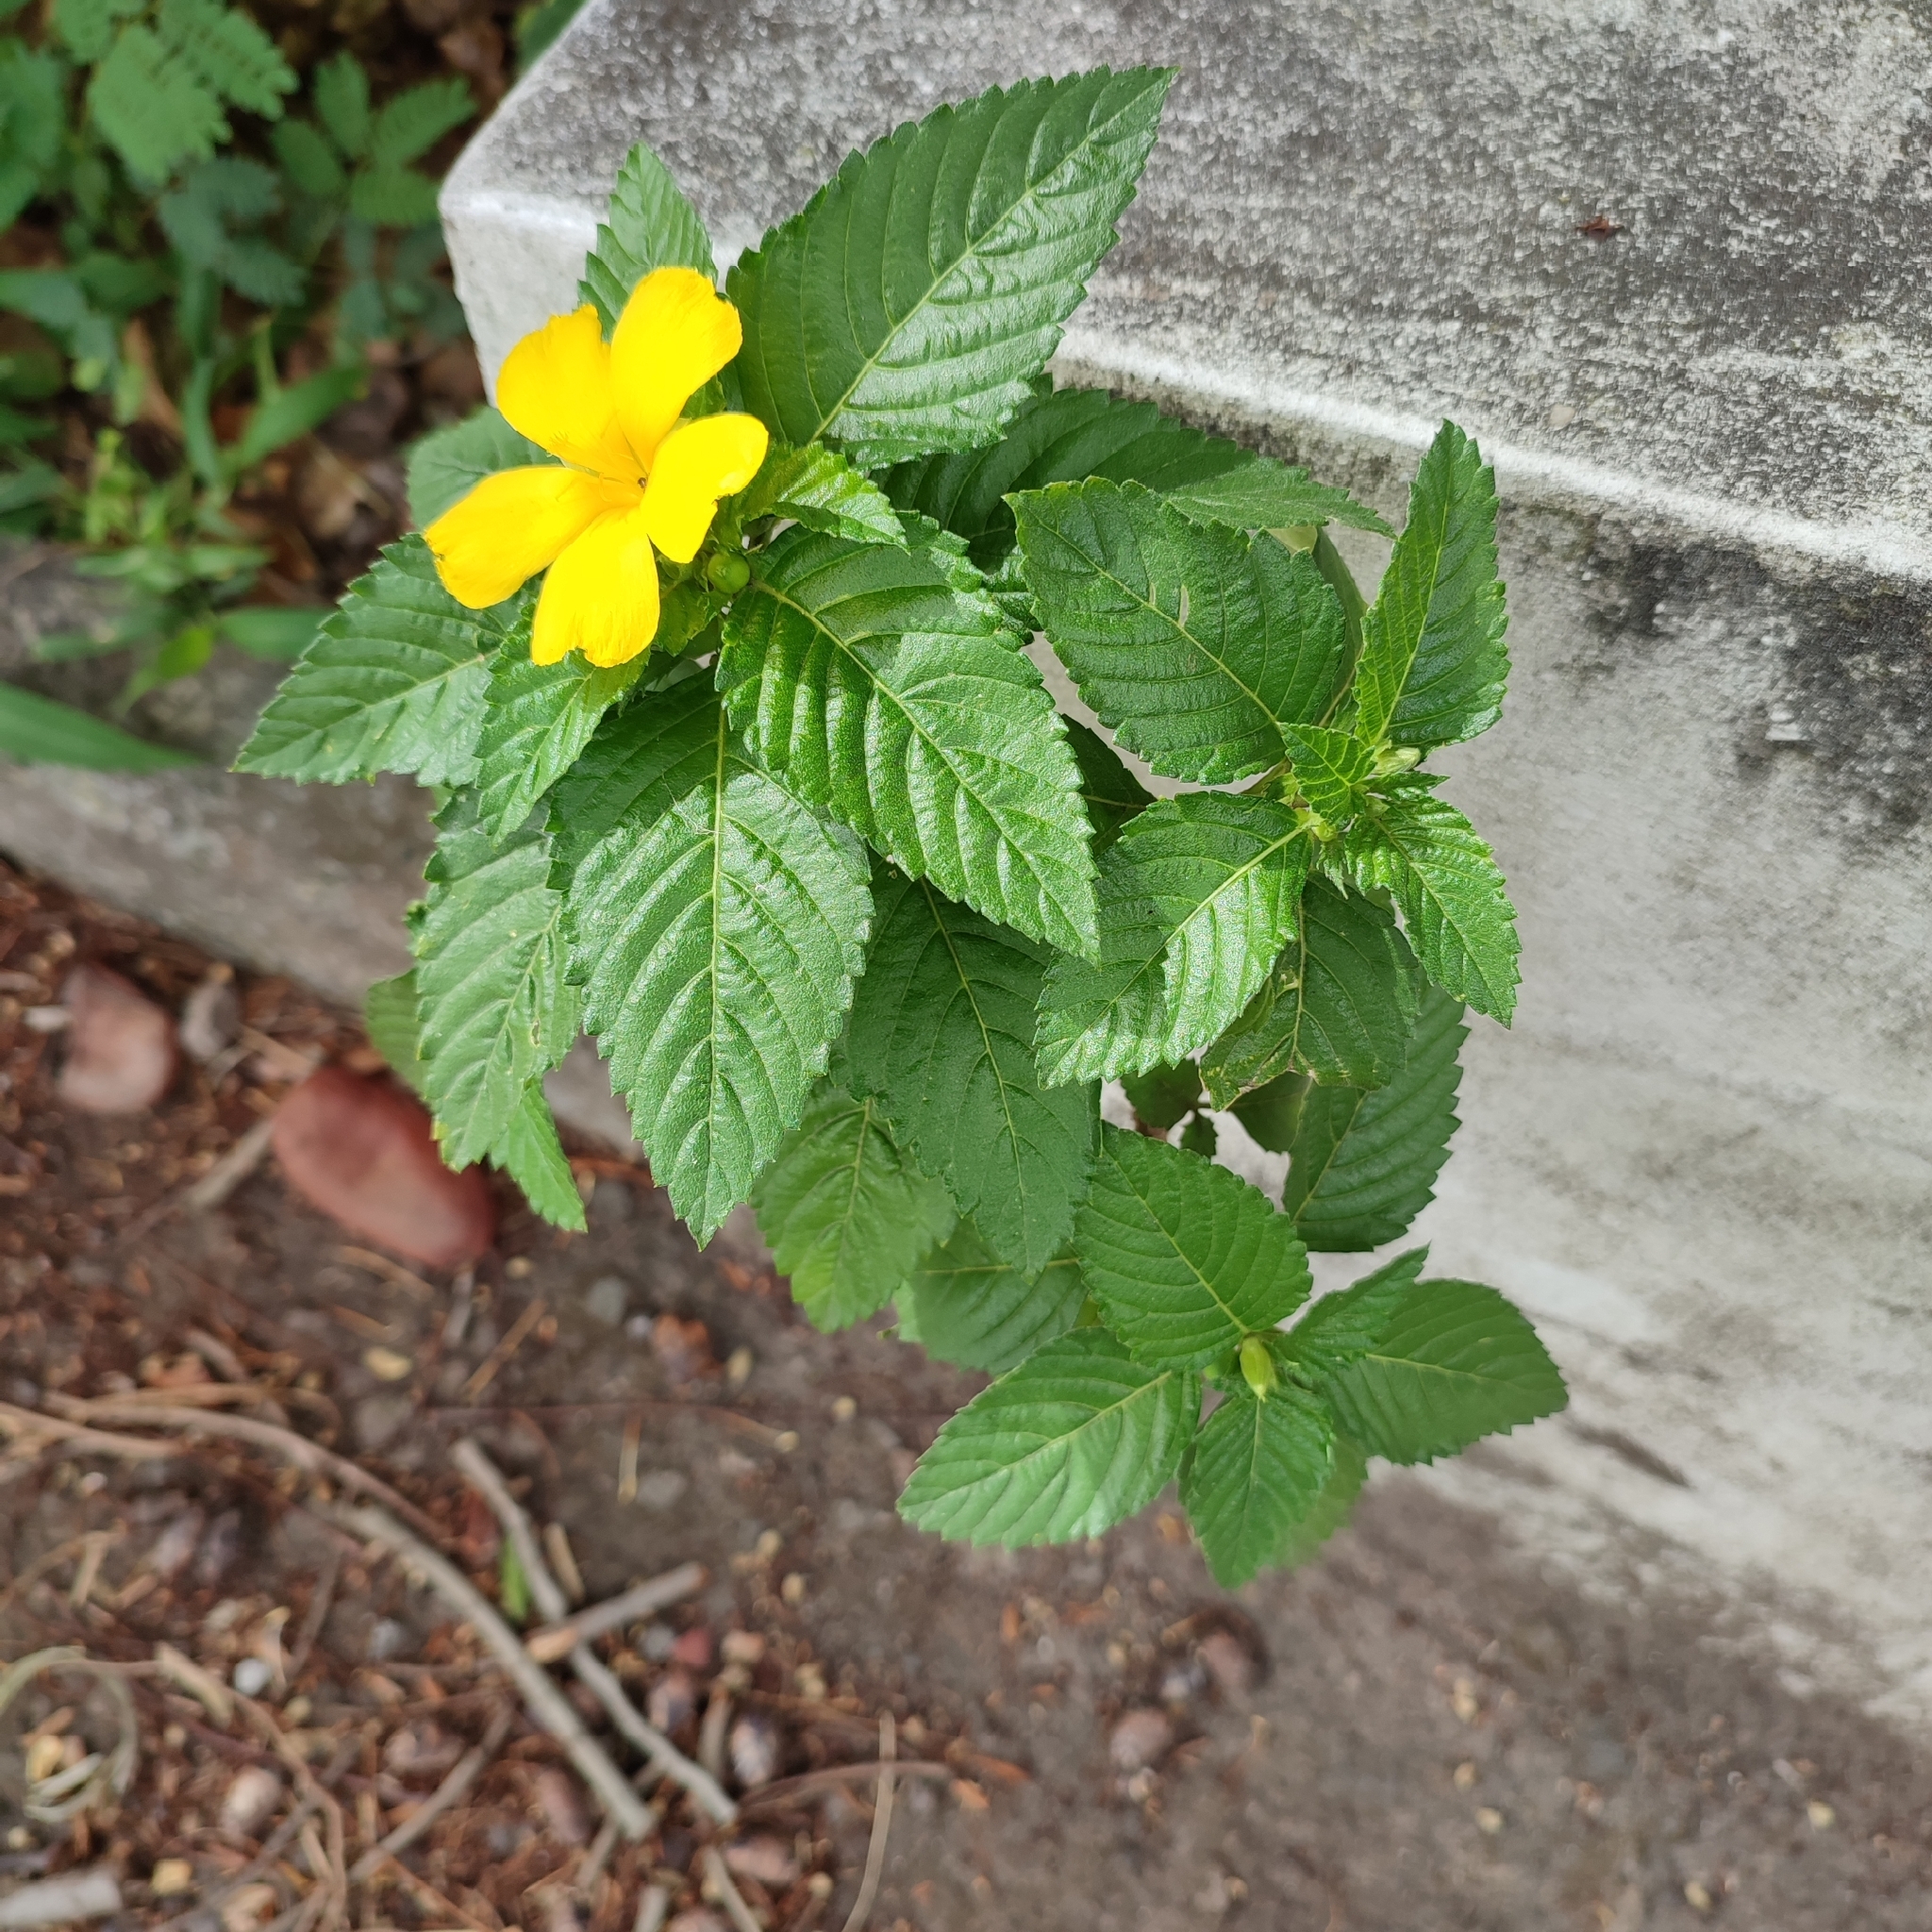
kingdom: Plantae
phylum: Tracheophyta
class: Magnoliopsida
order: Malpighiales
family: Turneraceae
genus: Turnera
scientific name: Turnera ulmifolia
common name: Ramgoat dashalong
